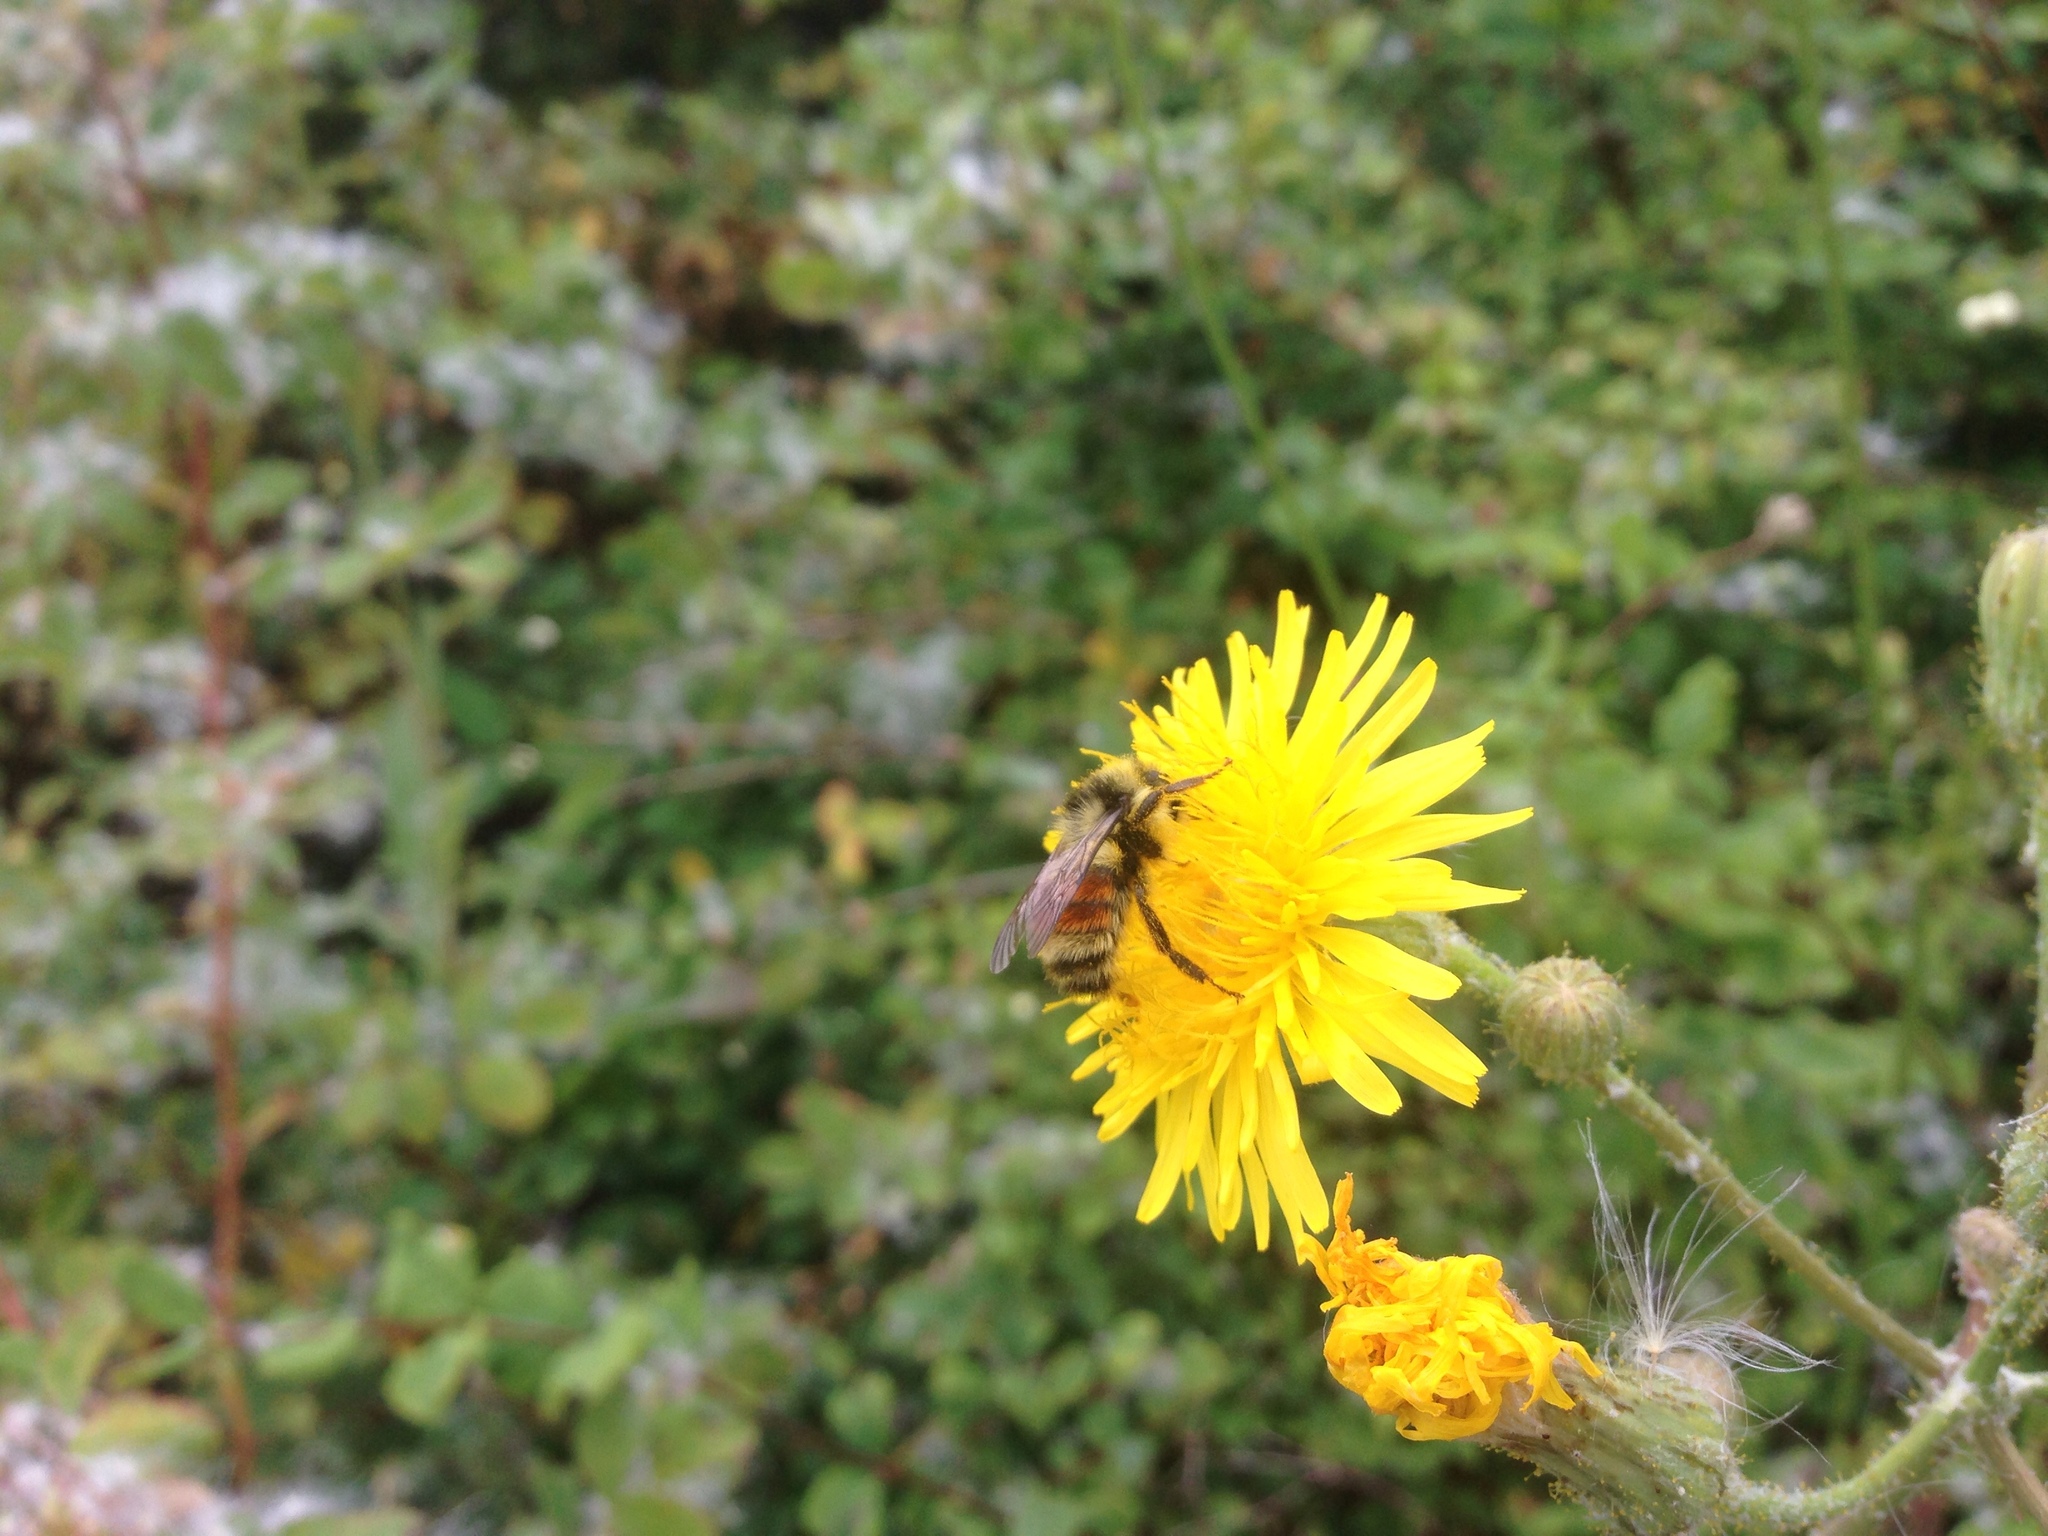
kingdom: Animalia
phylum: Arthropoda
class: Insecta
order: Hymenoptera
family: Apidae
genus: Bombus
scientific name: Bombus vancouverensis
